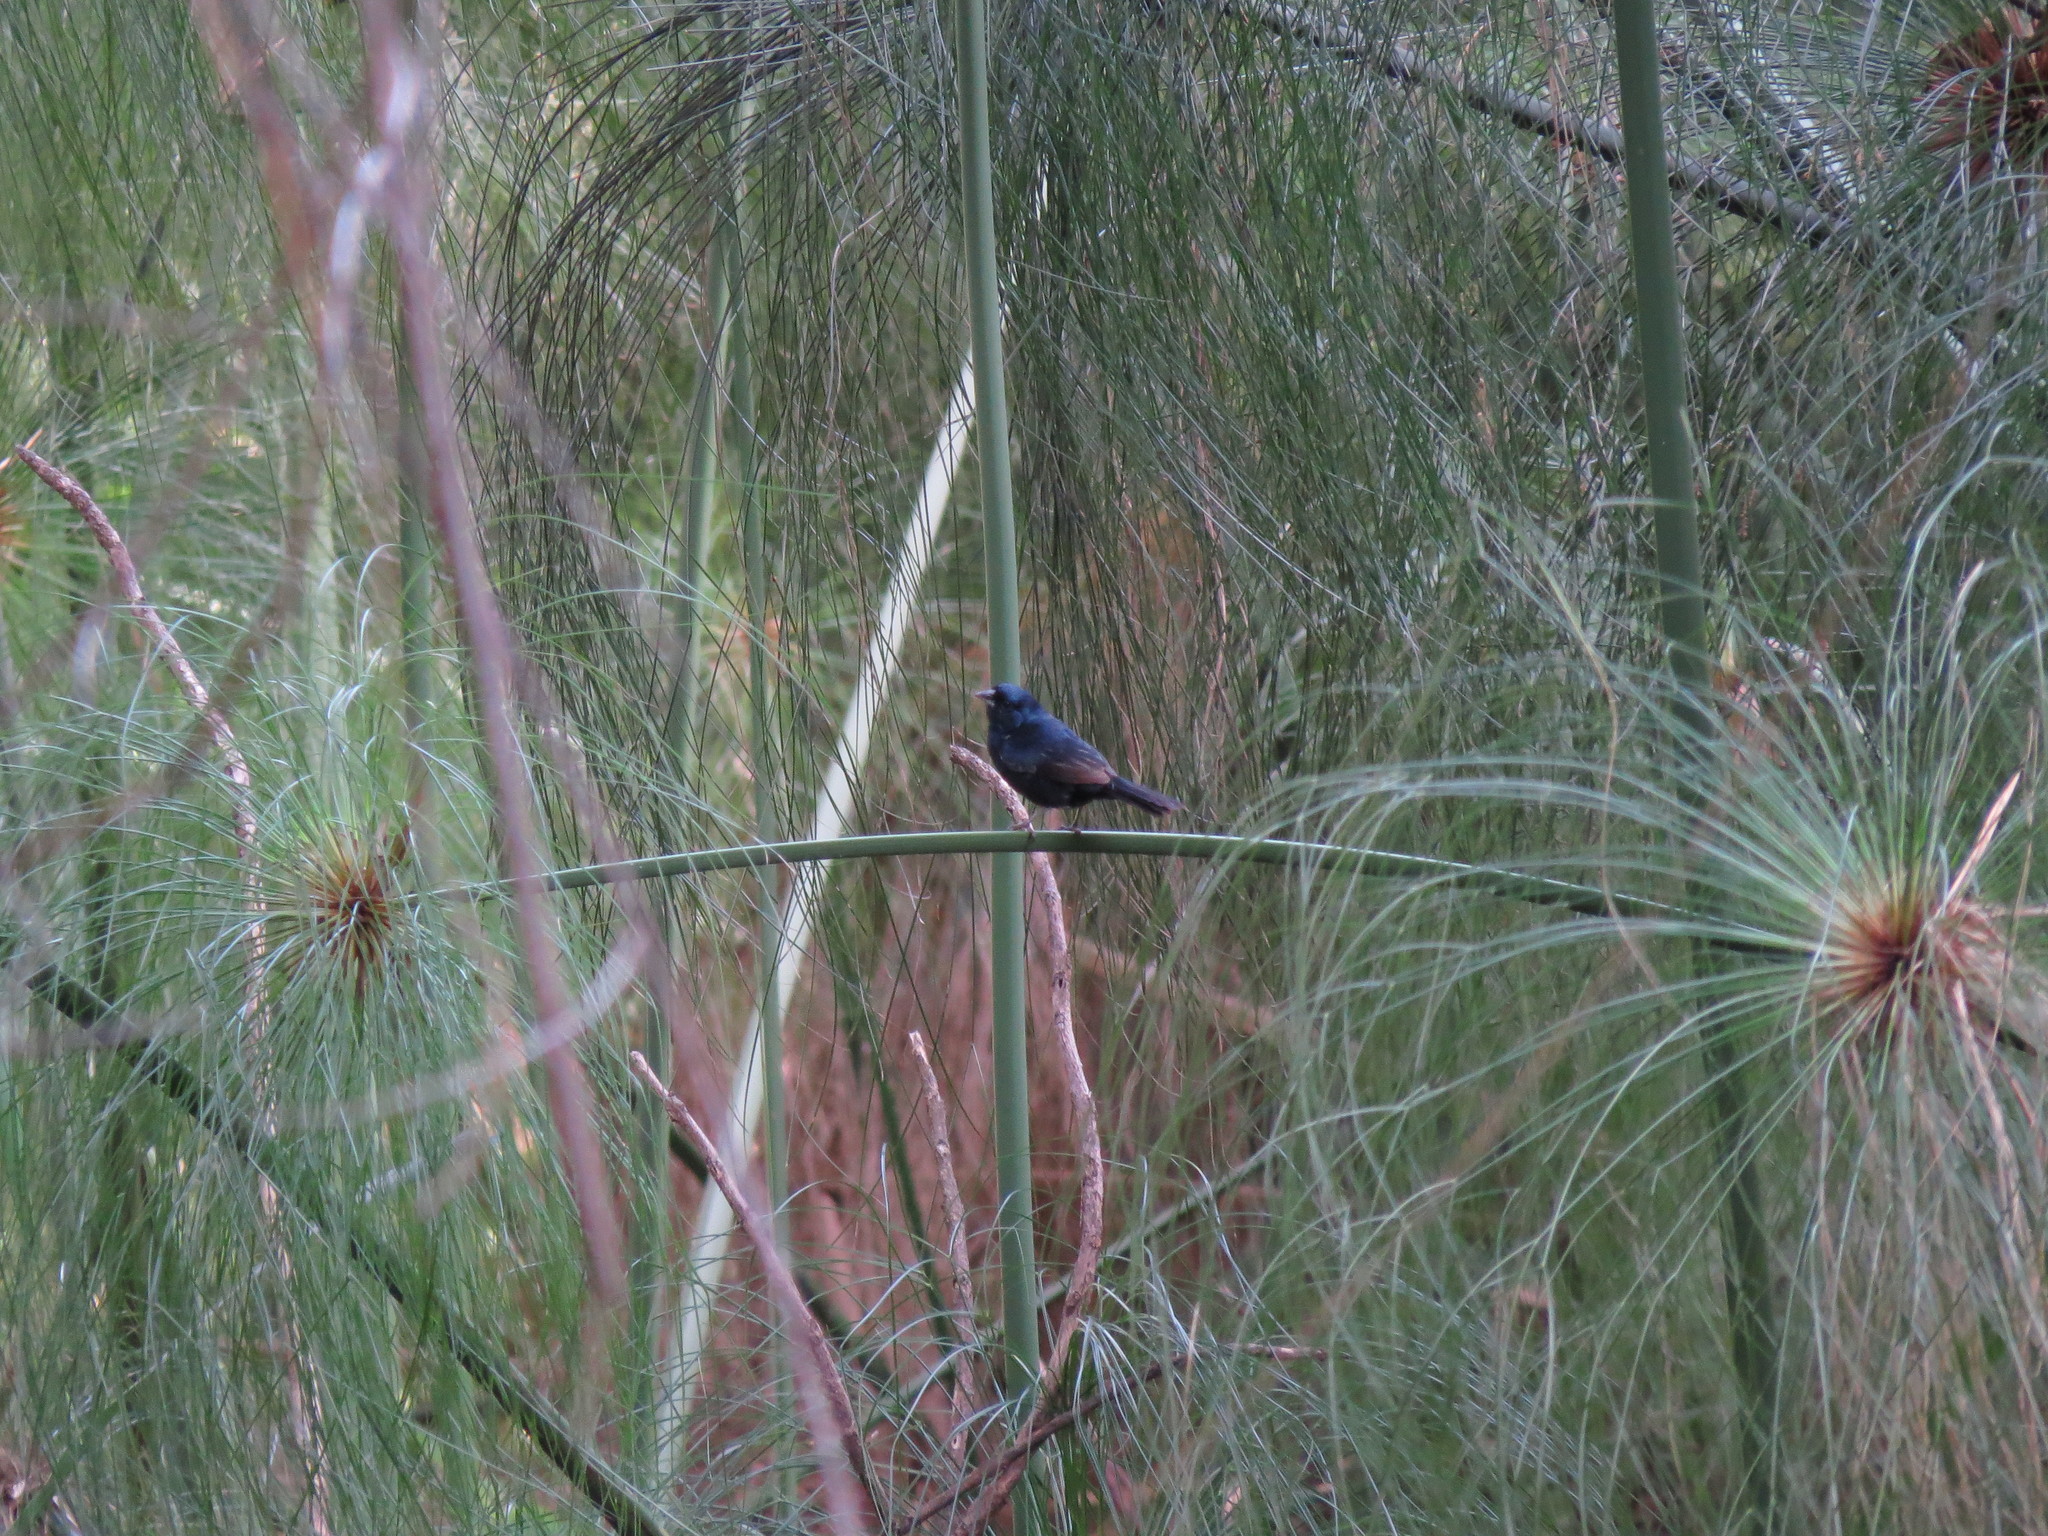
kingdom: Animalia
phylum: Chordata
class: Aves
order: Passeriformes
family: Thraupidae
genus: Volatinia
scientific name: Volatinia jacarina
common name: Blue-black grassquit
